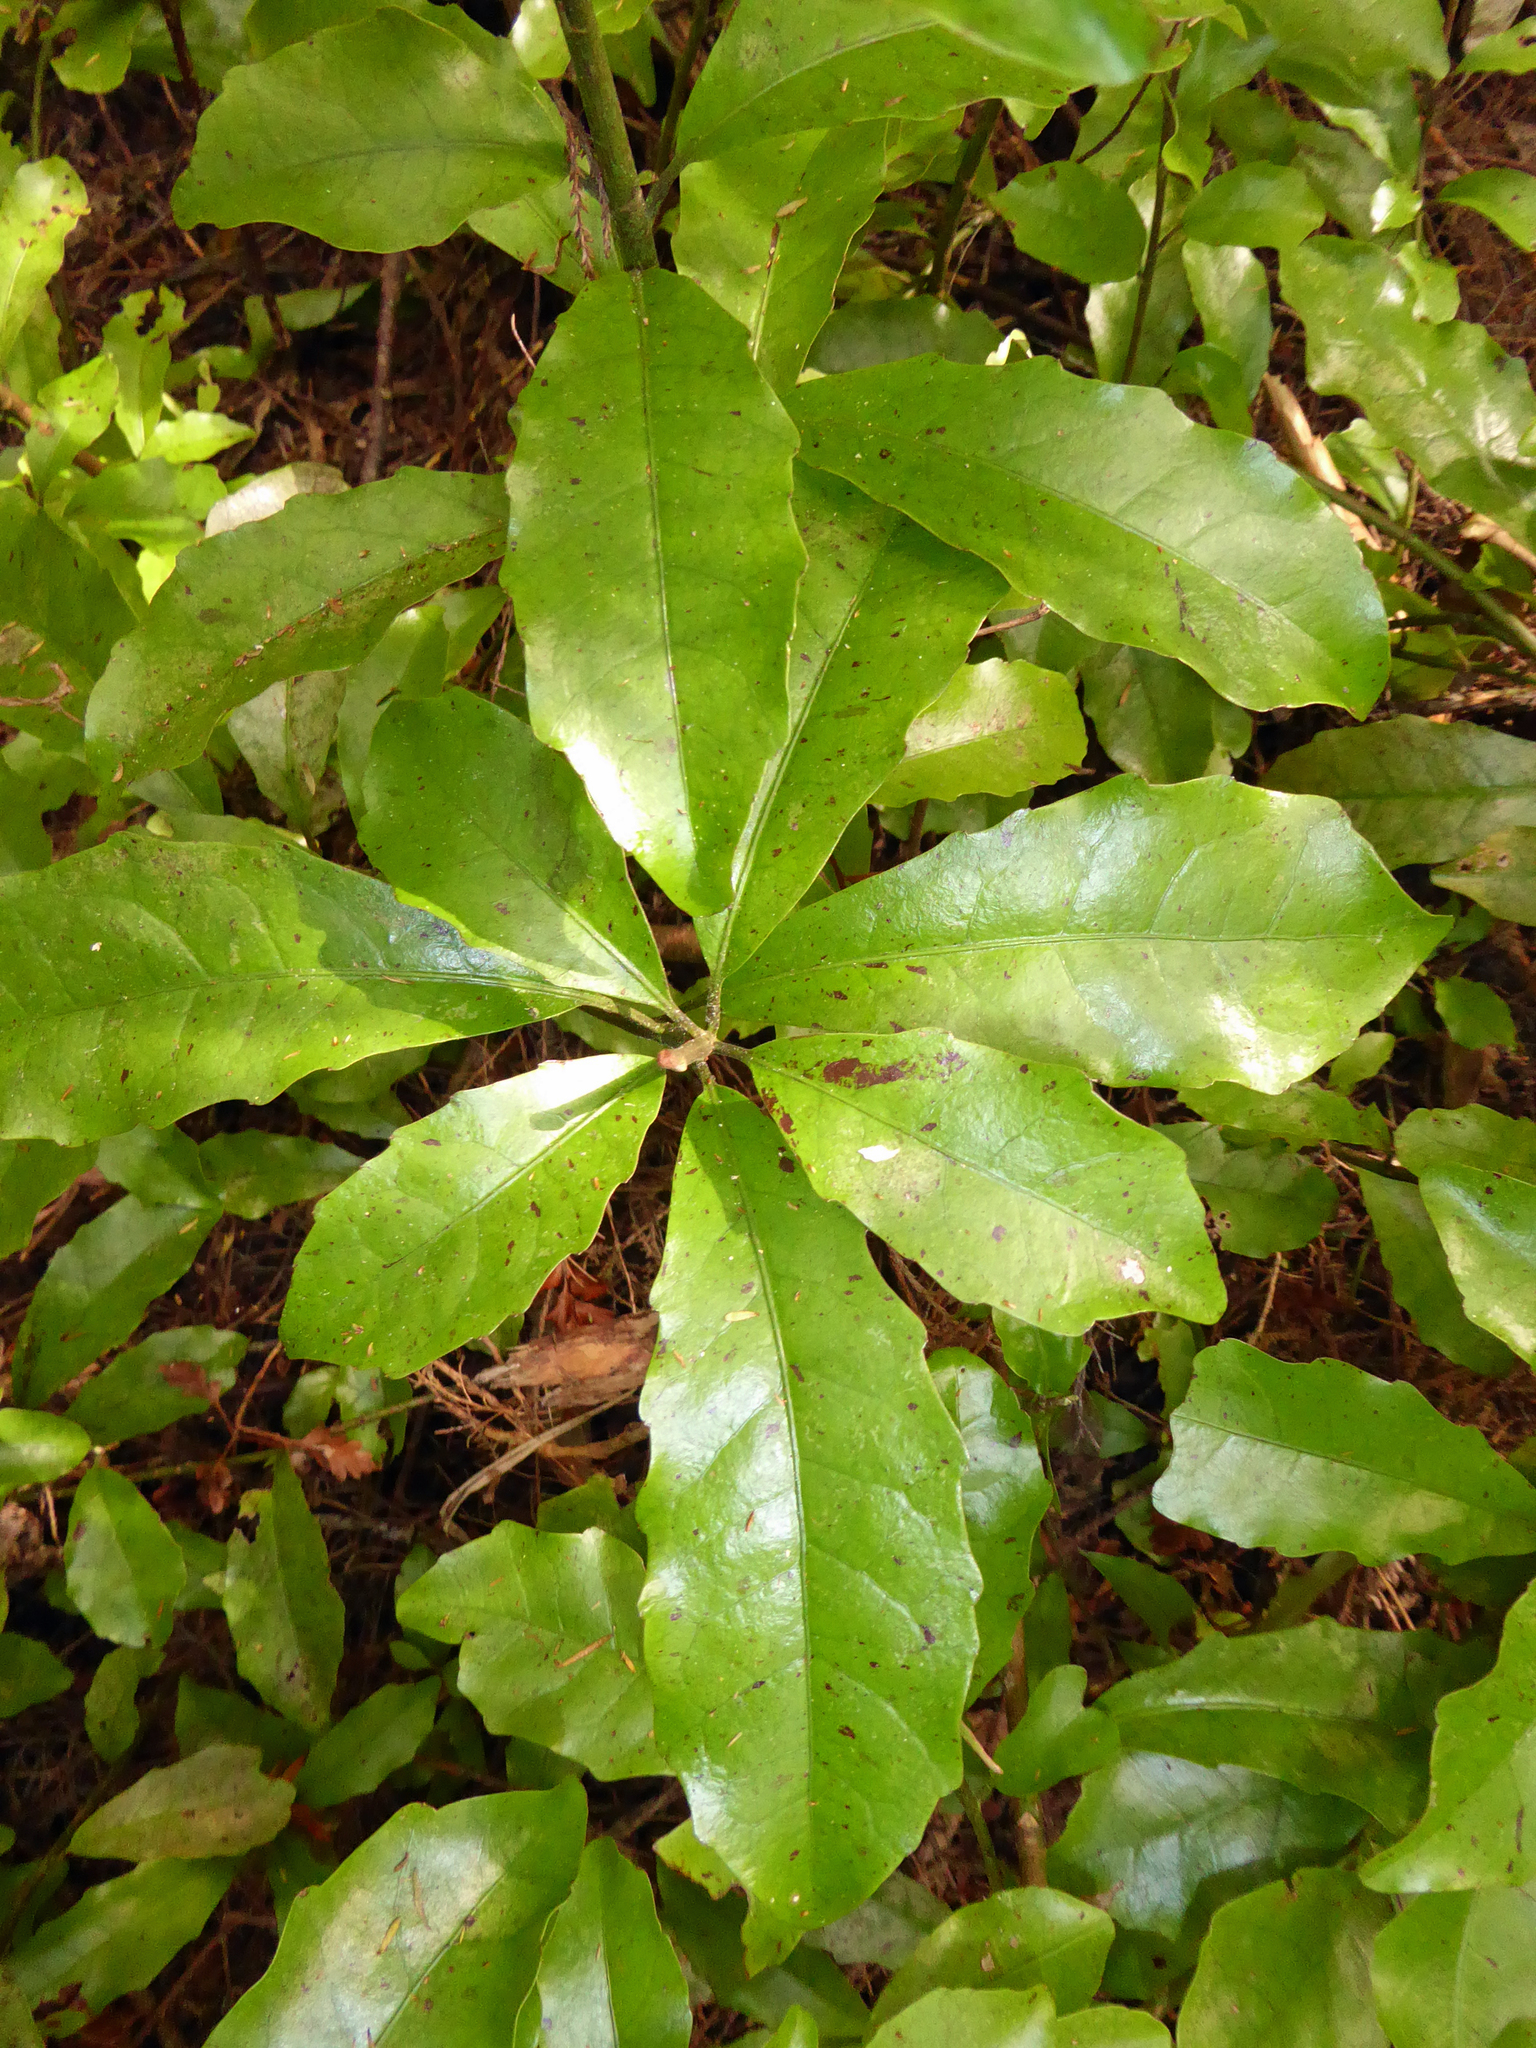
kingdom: Plantae
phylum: Tracheophyta
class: Magnoliopsida
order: Asterales
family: Alseuosmiaceae
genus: Alseuosmia
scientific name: Alseuosmia macrophylla
